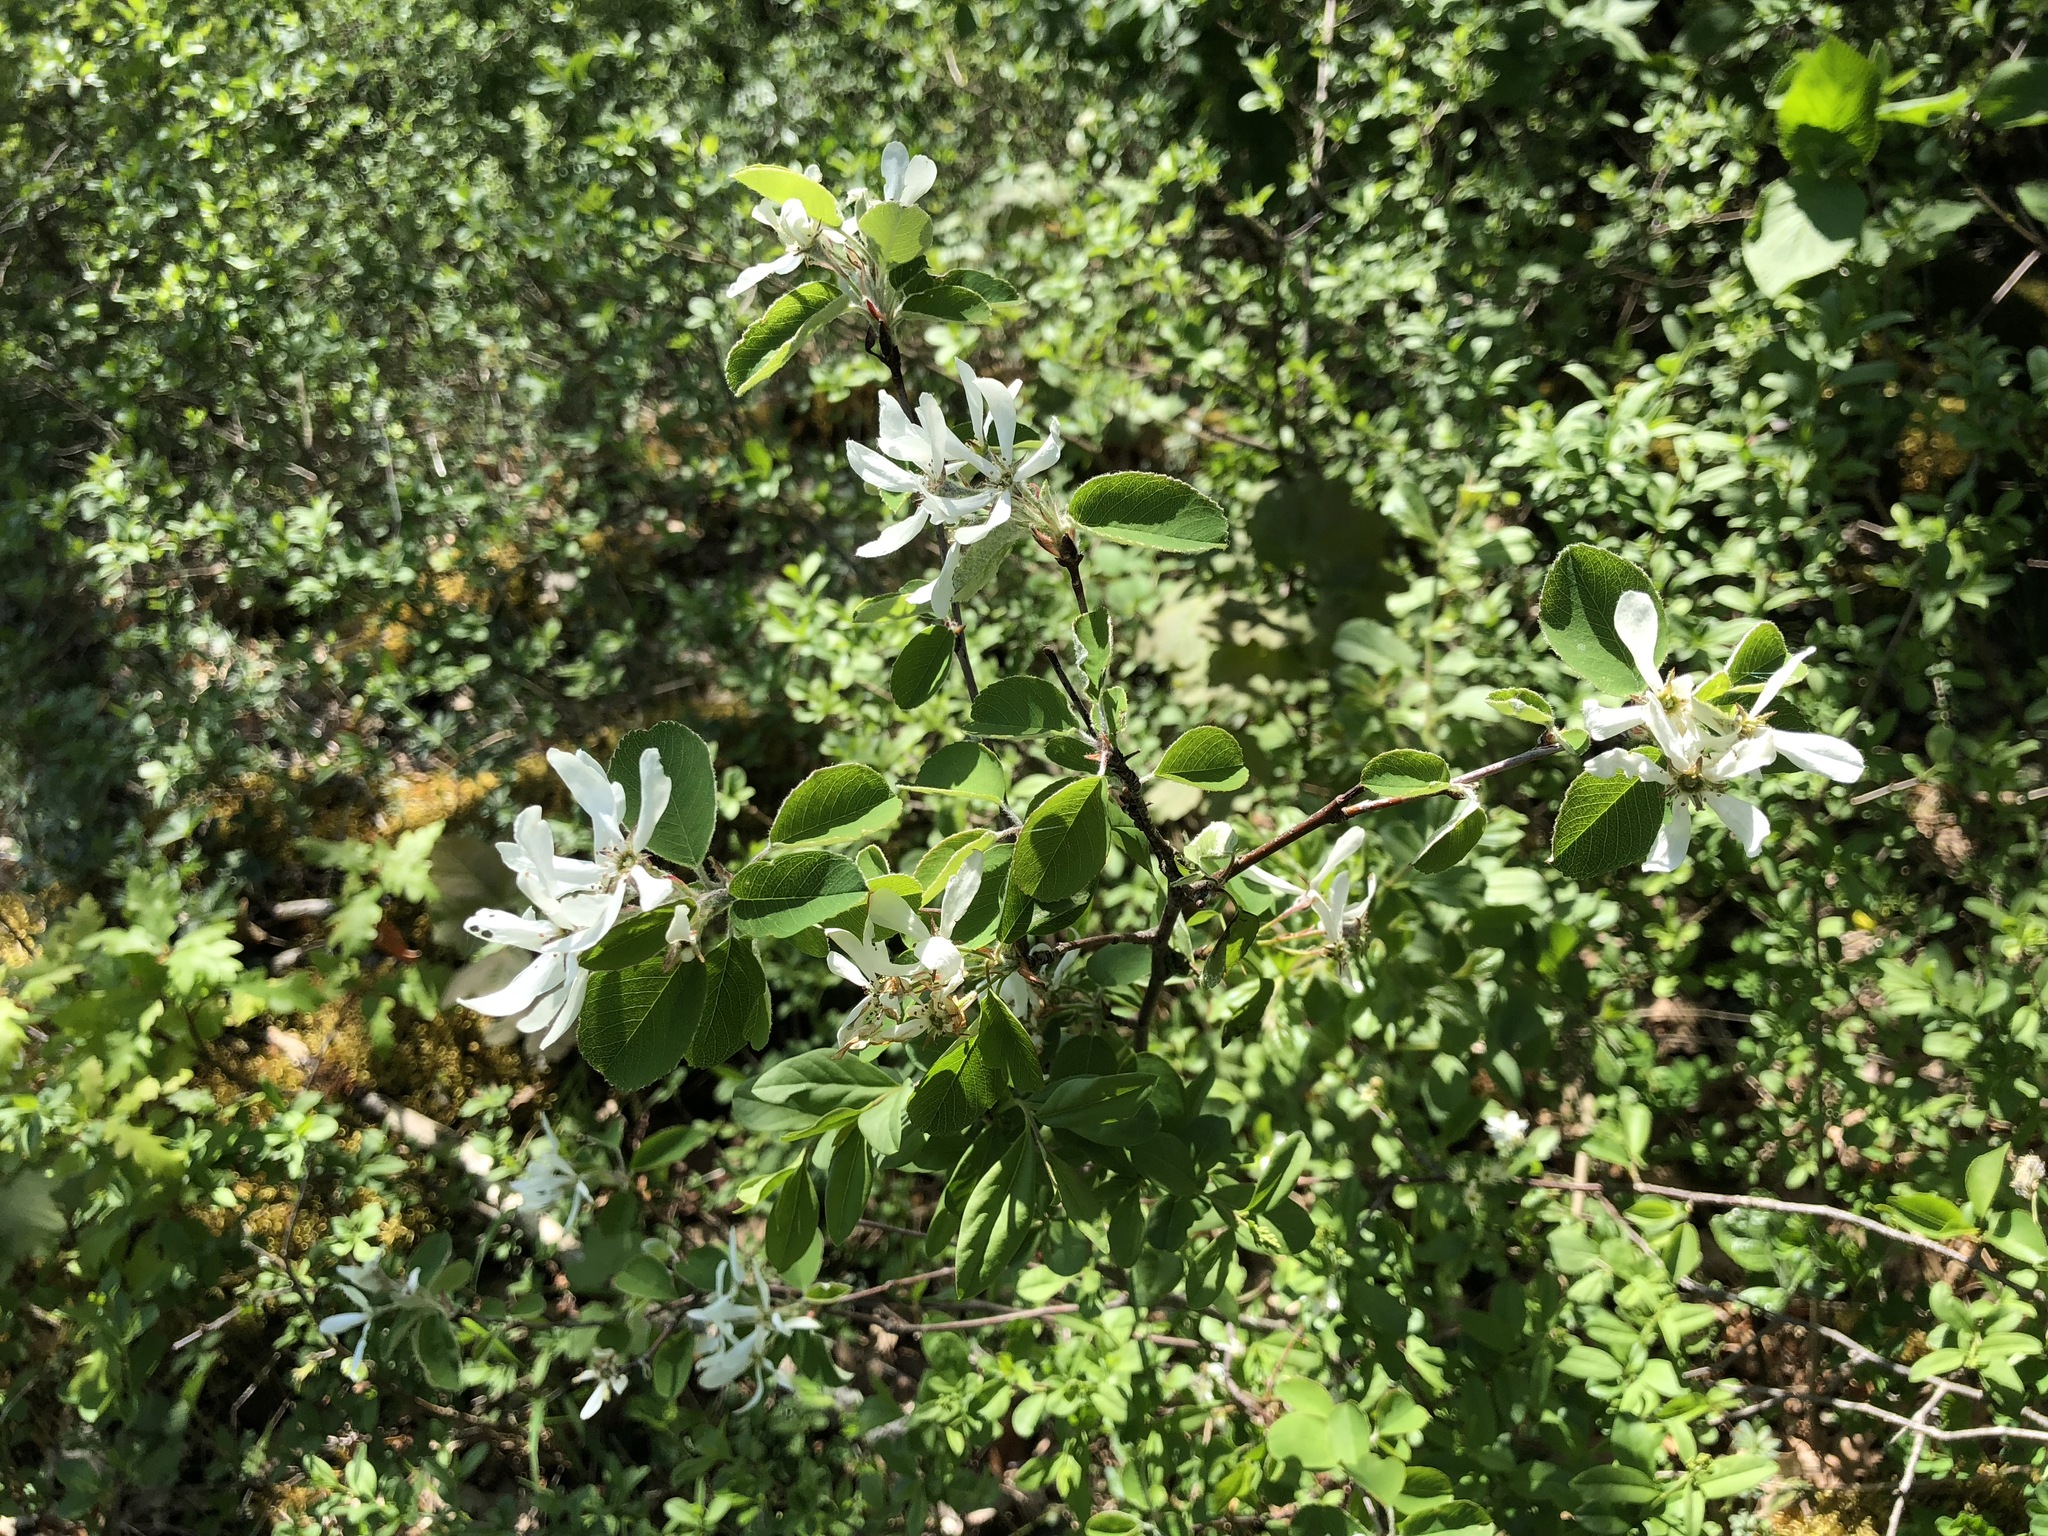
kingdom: Plantae
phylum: Tracheophyta
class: Magnoliopsida
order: Rosales
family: Rosaceae
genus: Amelanchier
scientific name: Amelanchier ovalis
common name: Serviceberry
